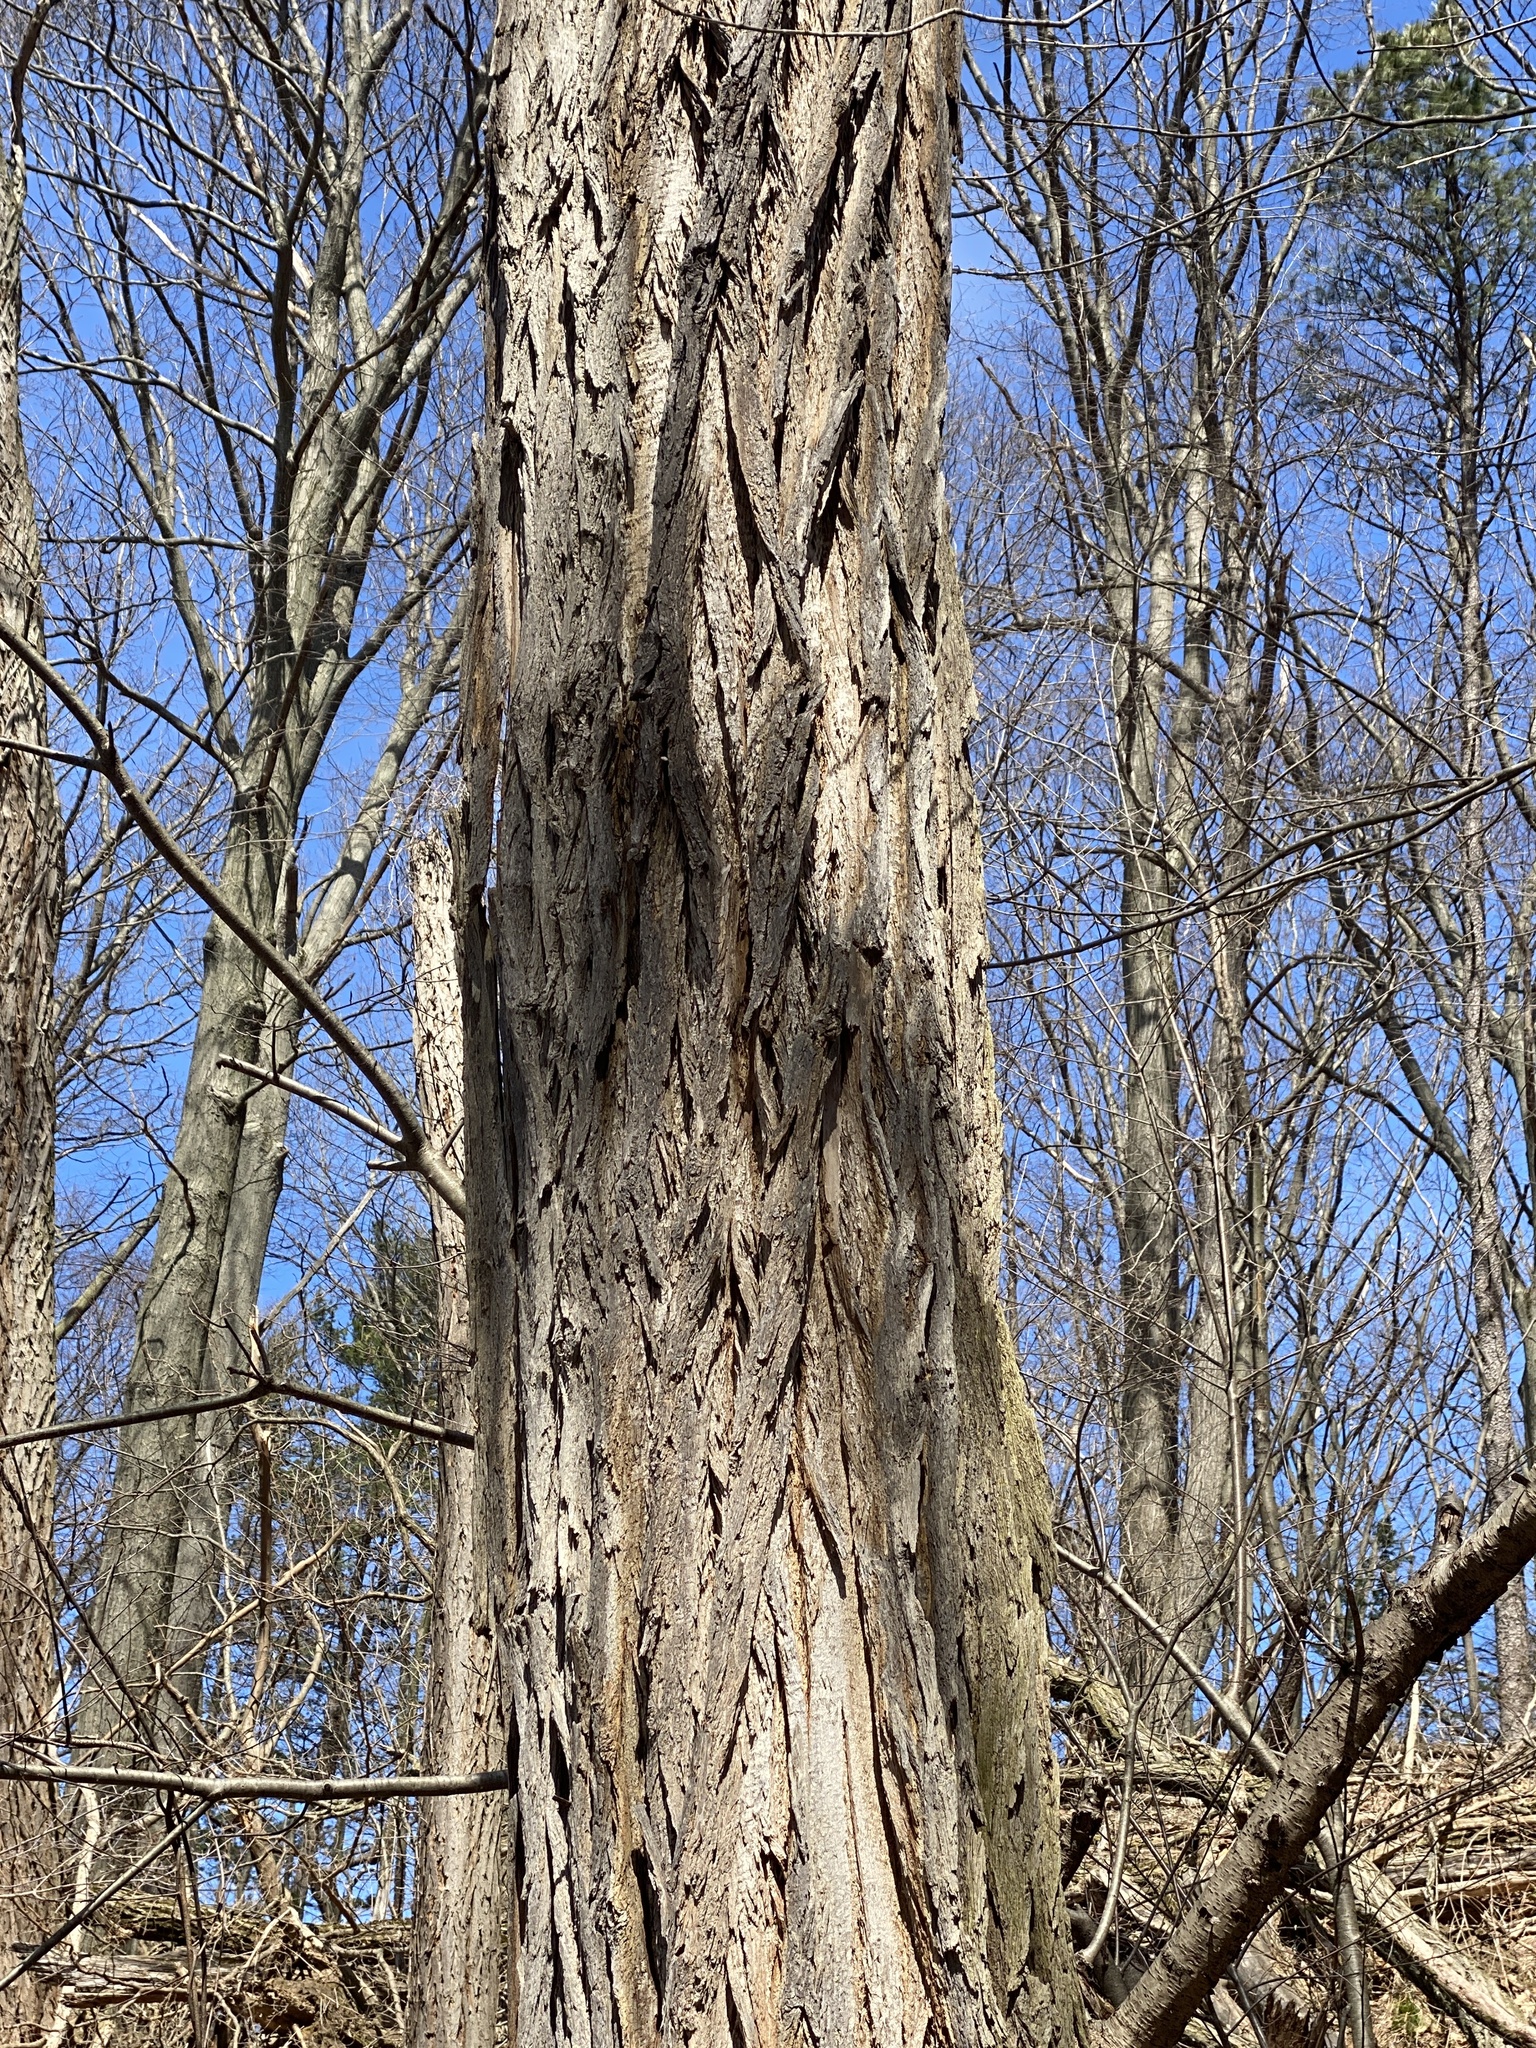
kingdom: Plantae
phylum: Tracheophyta
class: Magnoliopsida
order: Fabales
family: Fabaceae
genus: Robinia
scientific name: Robinia pseudoacacia
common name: Black locust
